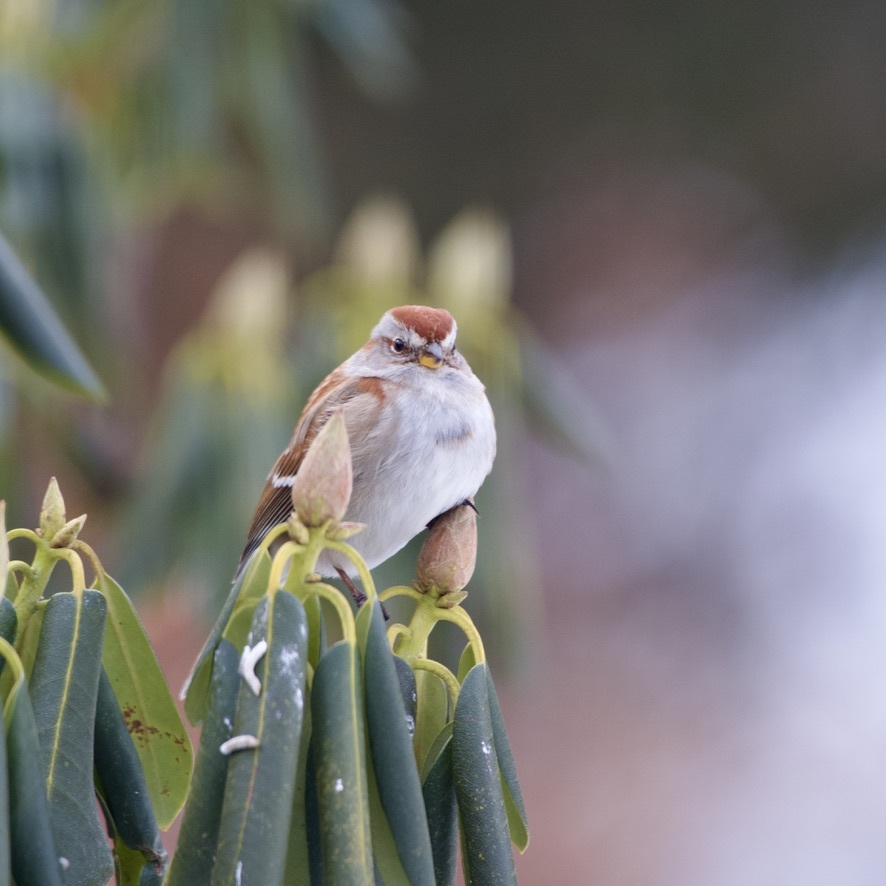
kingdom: Animalia
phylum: Chordata
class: Aves
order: Passeriformes
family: Passerellidae
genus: Spizelloides
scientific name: Spizelloides arborea
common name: American tree sparrow
